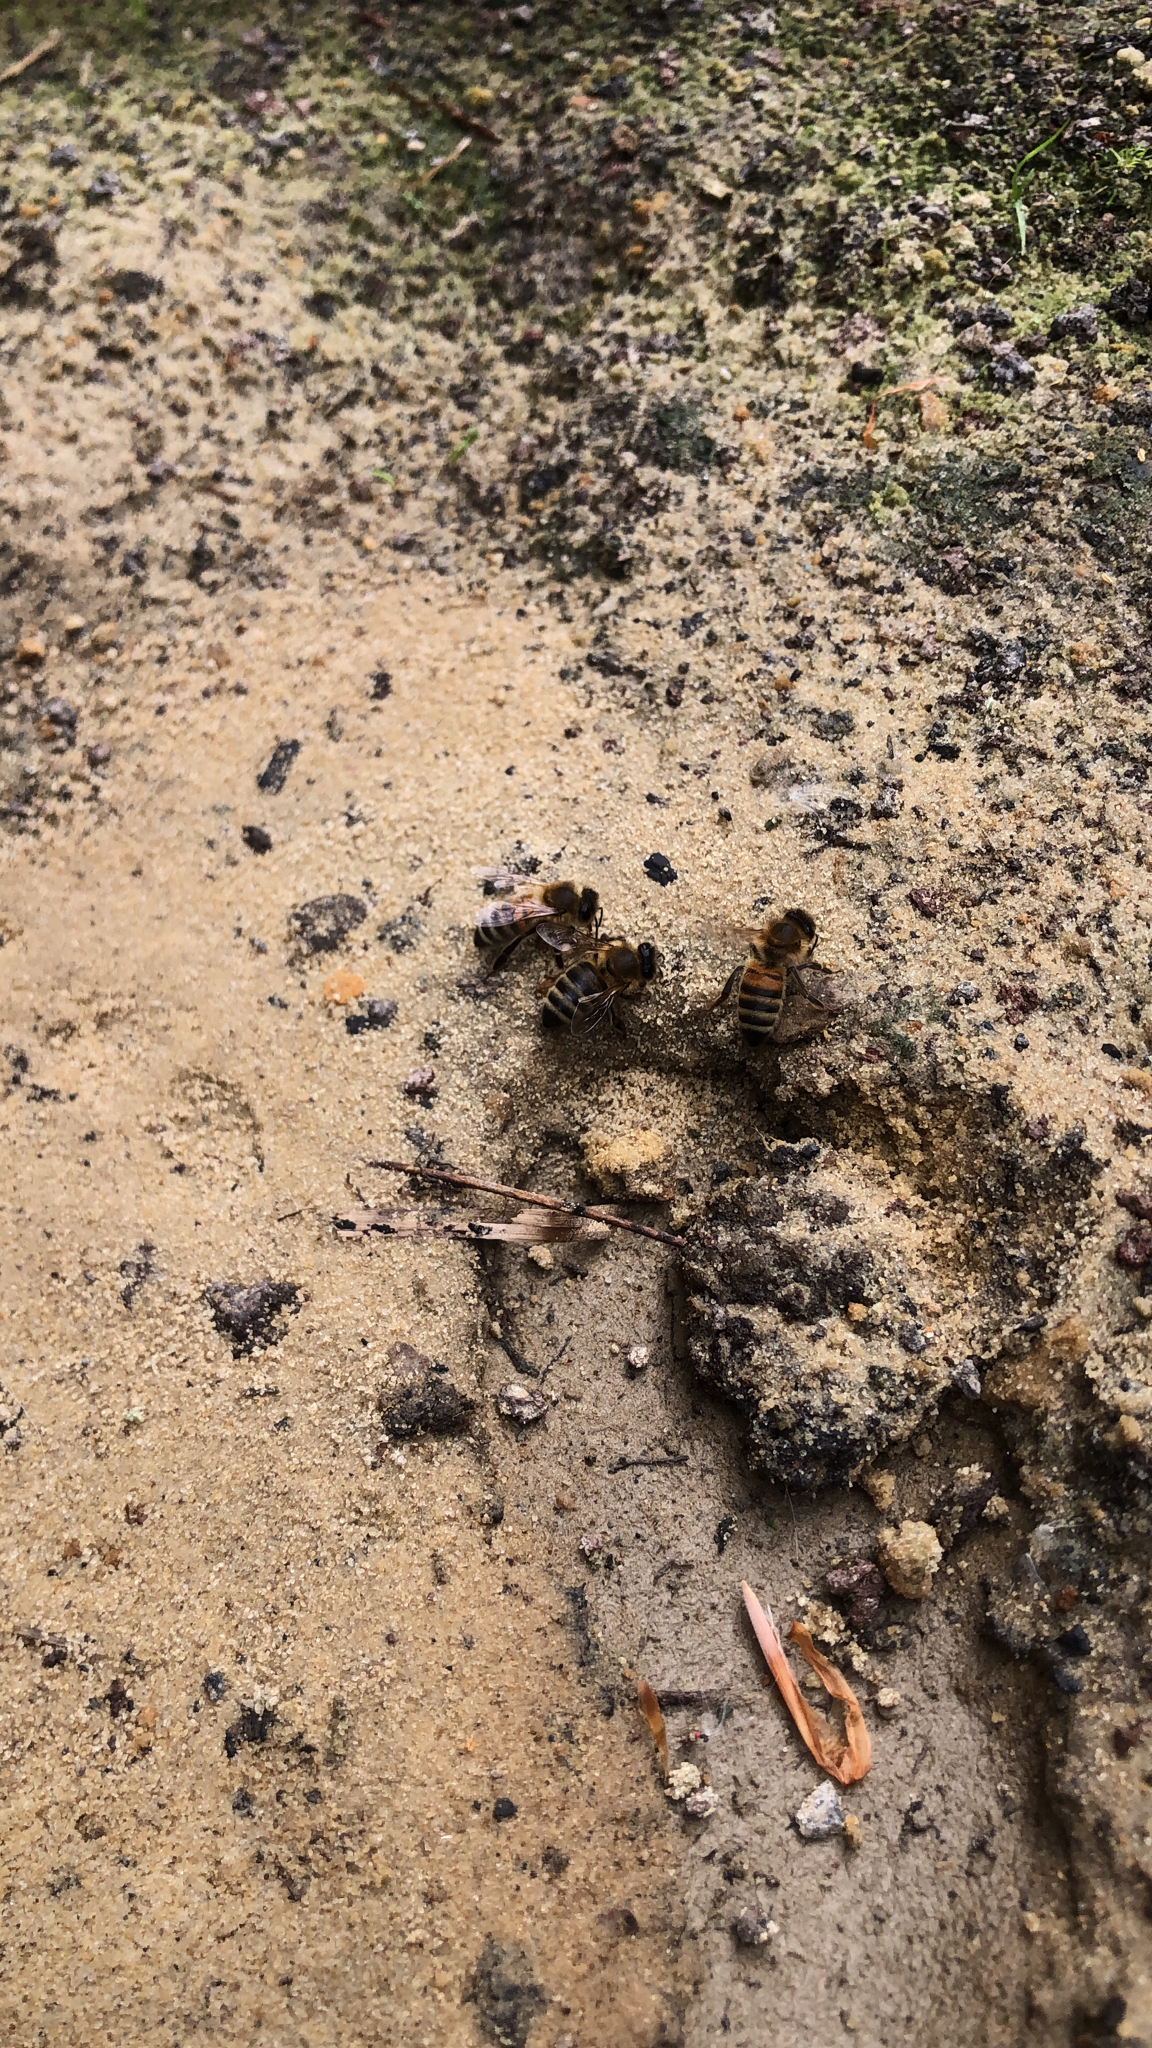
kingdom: Animalia
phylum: Arthropoda
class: Insecta
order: Hymenoptera
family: Apidae
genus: Apis
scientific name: Apis mellifera
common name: Honey bee
